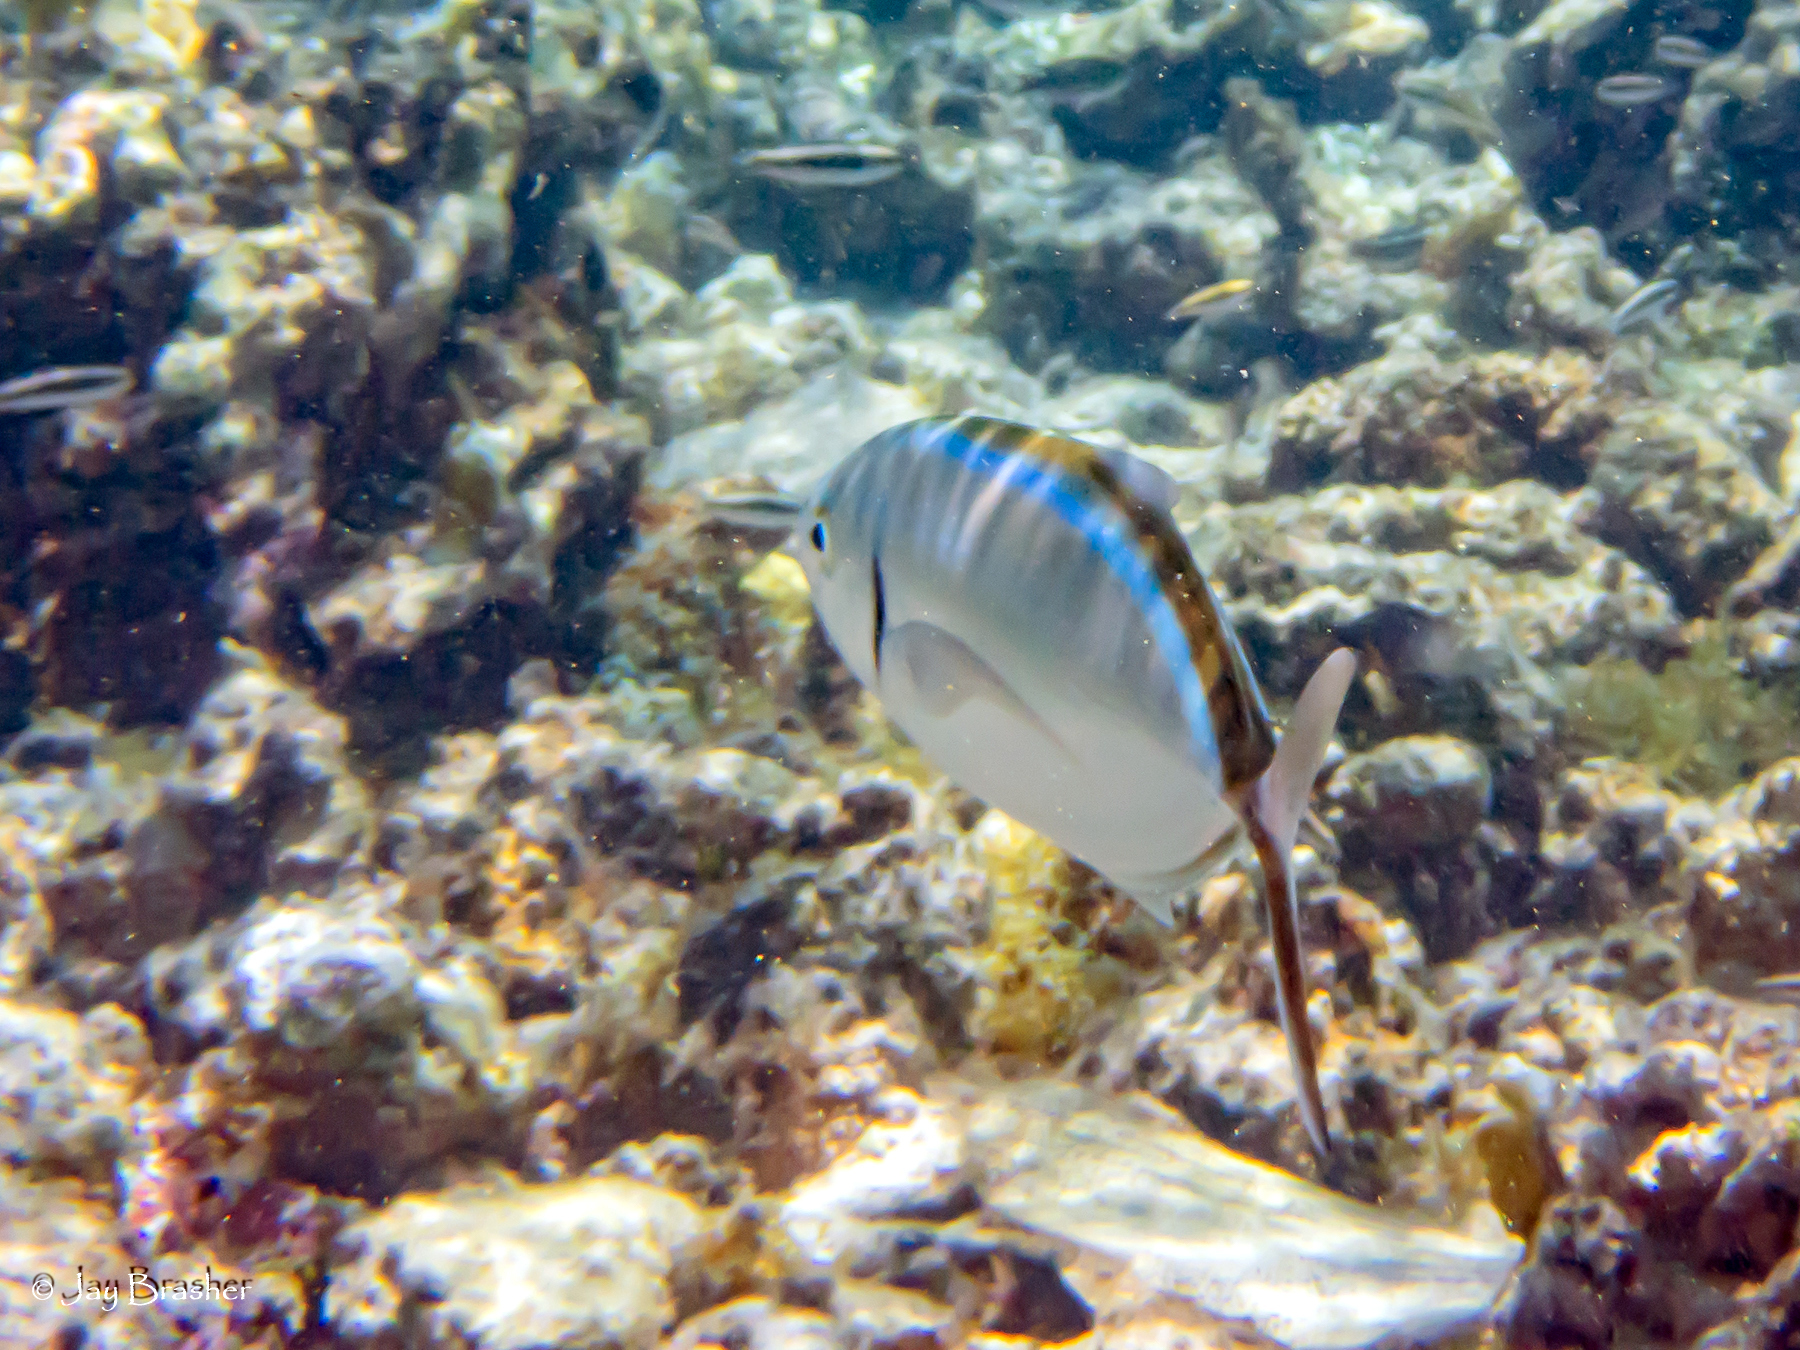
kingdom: Animalia
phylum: Chordata
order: Perciformes
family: Carangidae
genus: Caranx
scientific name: Caranx ruber
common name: Bar jack
